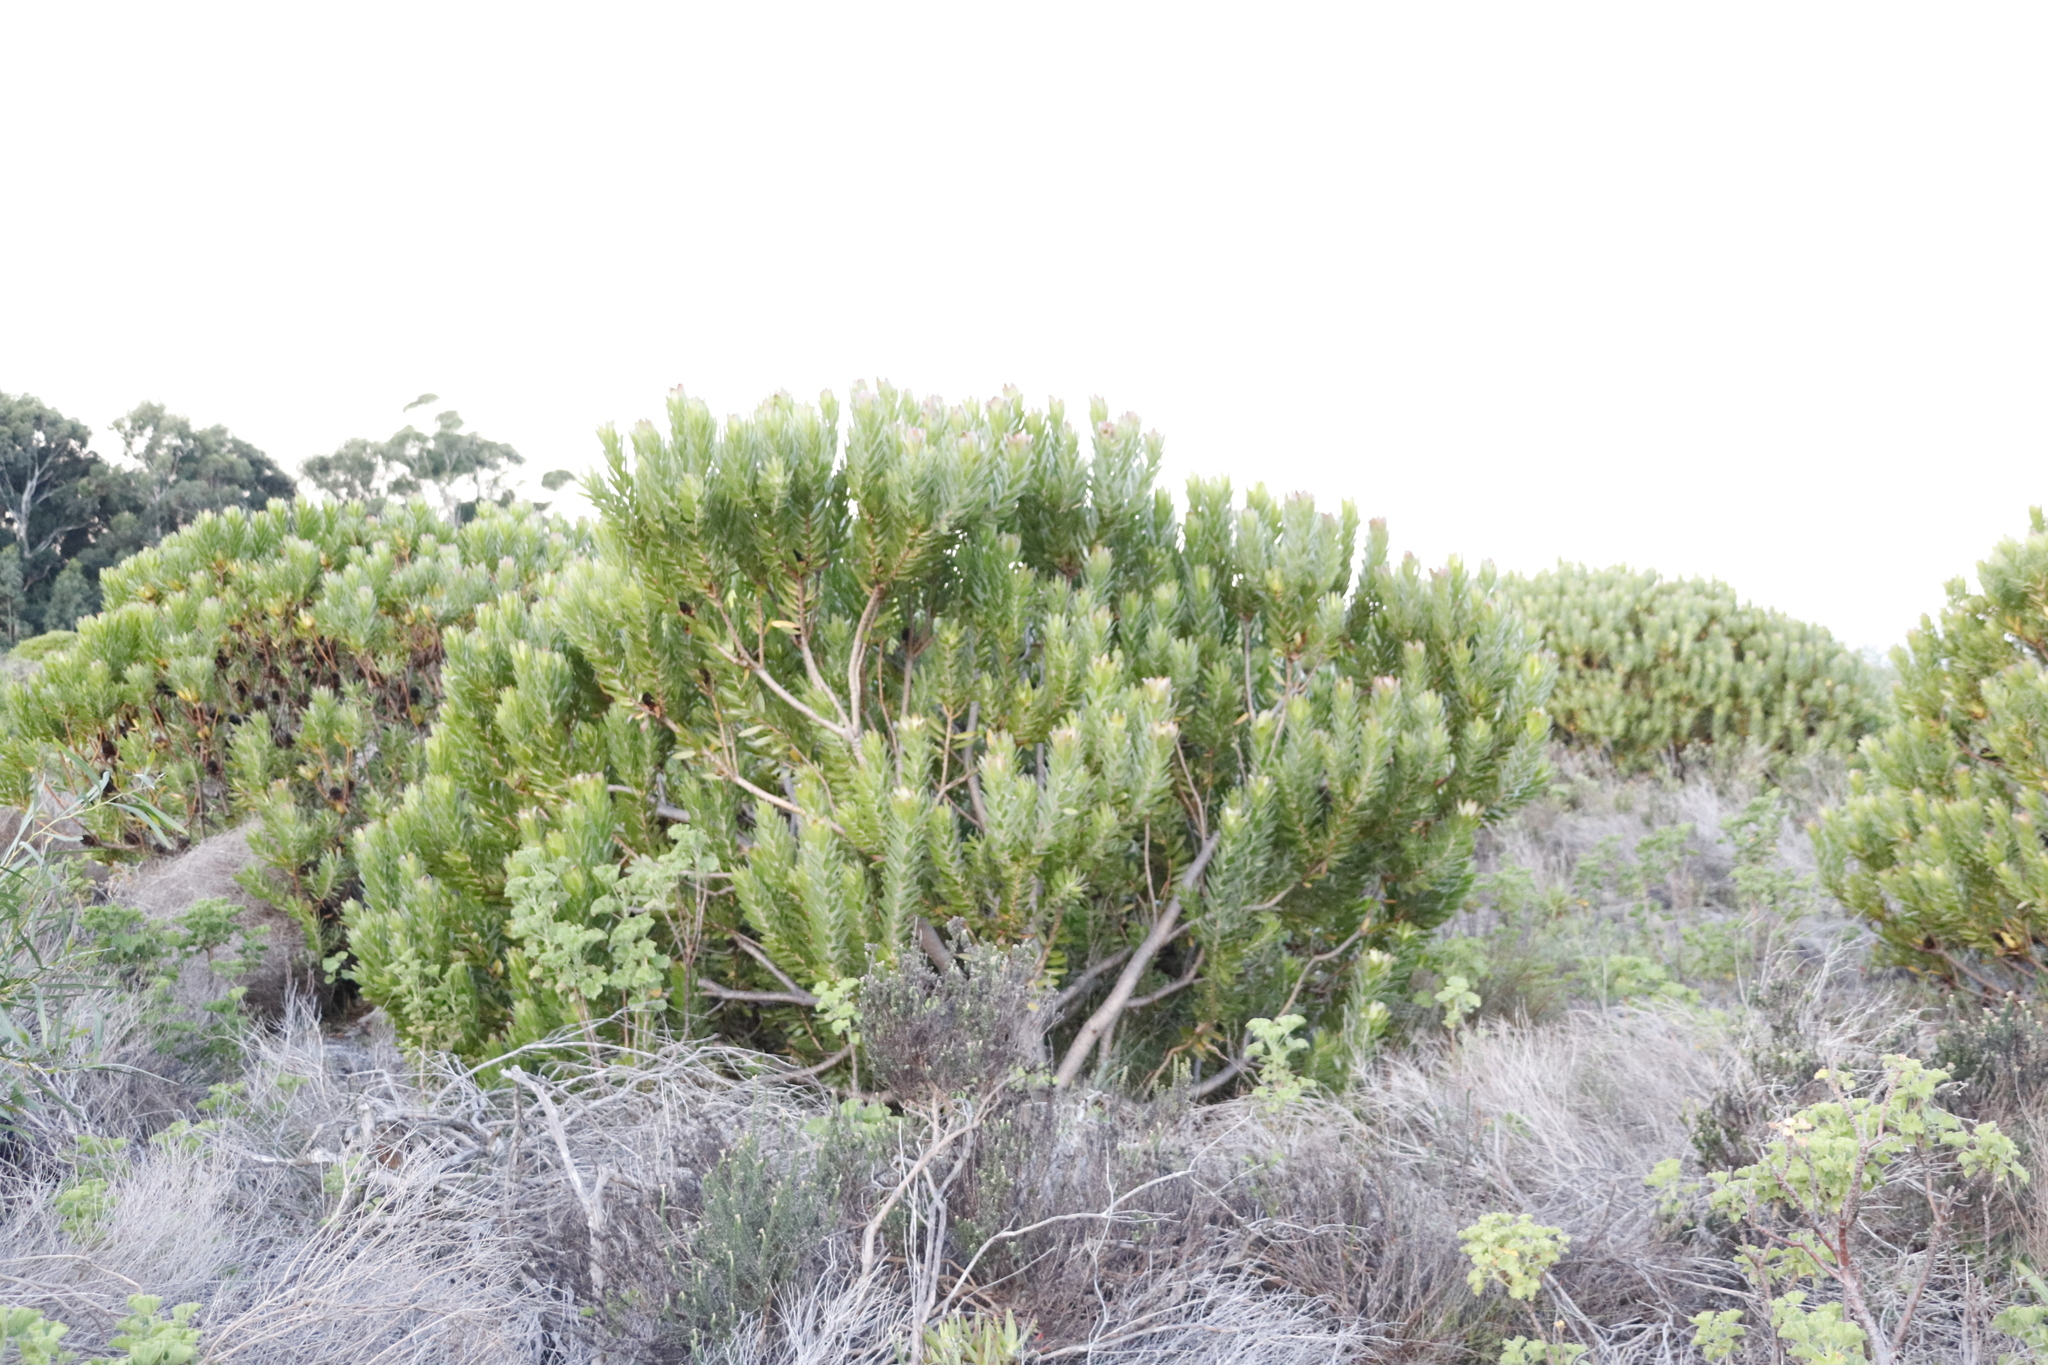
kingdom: Plantae
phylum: Tracheophyta
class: Magnoliopsida
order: Proteales
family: Proteaceae
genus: Leucadendron
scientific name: Leucadendron laureolum
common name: Golden sunshinebush
